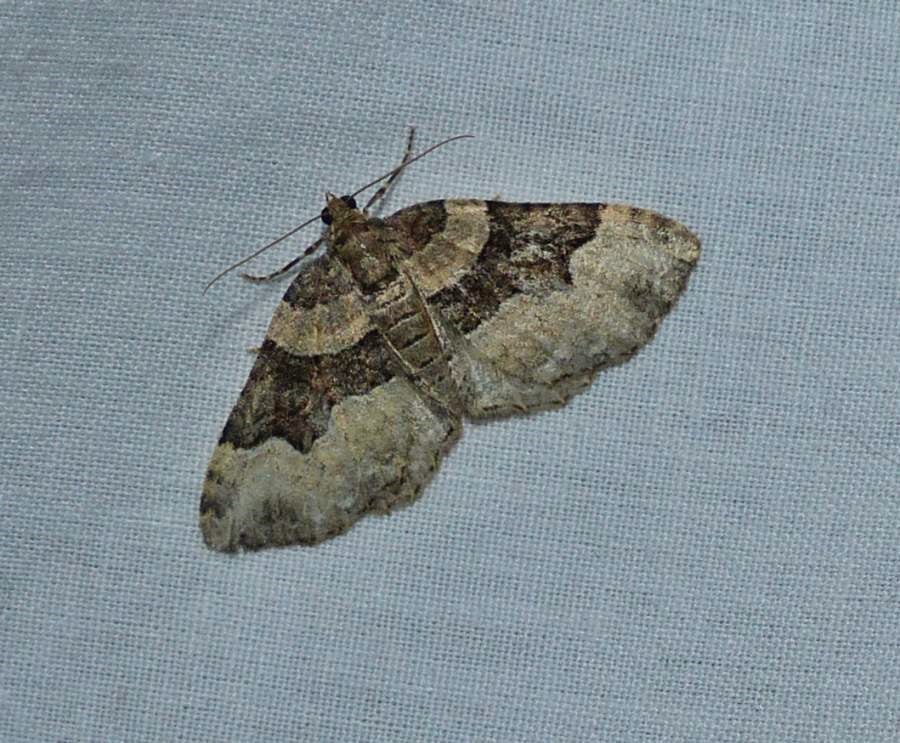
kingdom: Animalia
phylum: Arthropoda
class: Insecta
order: Lepidoptera
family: Geometridae
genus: Xanthorhoe
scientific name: Xanthorhoe lacustrata
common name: Toothed brown carpet
